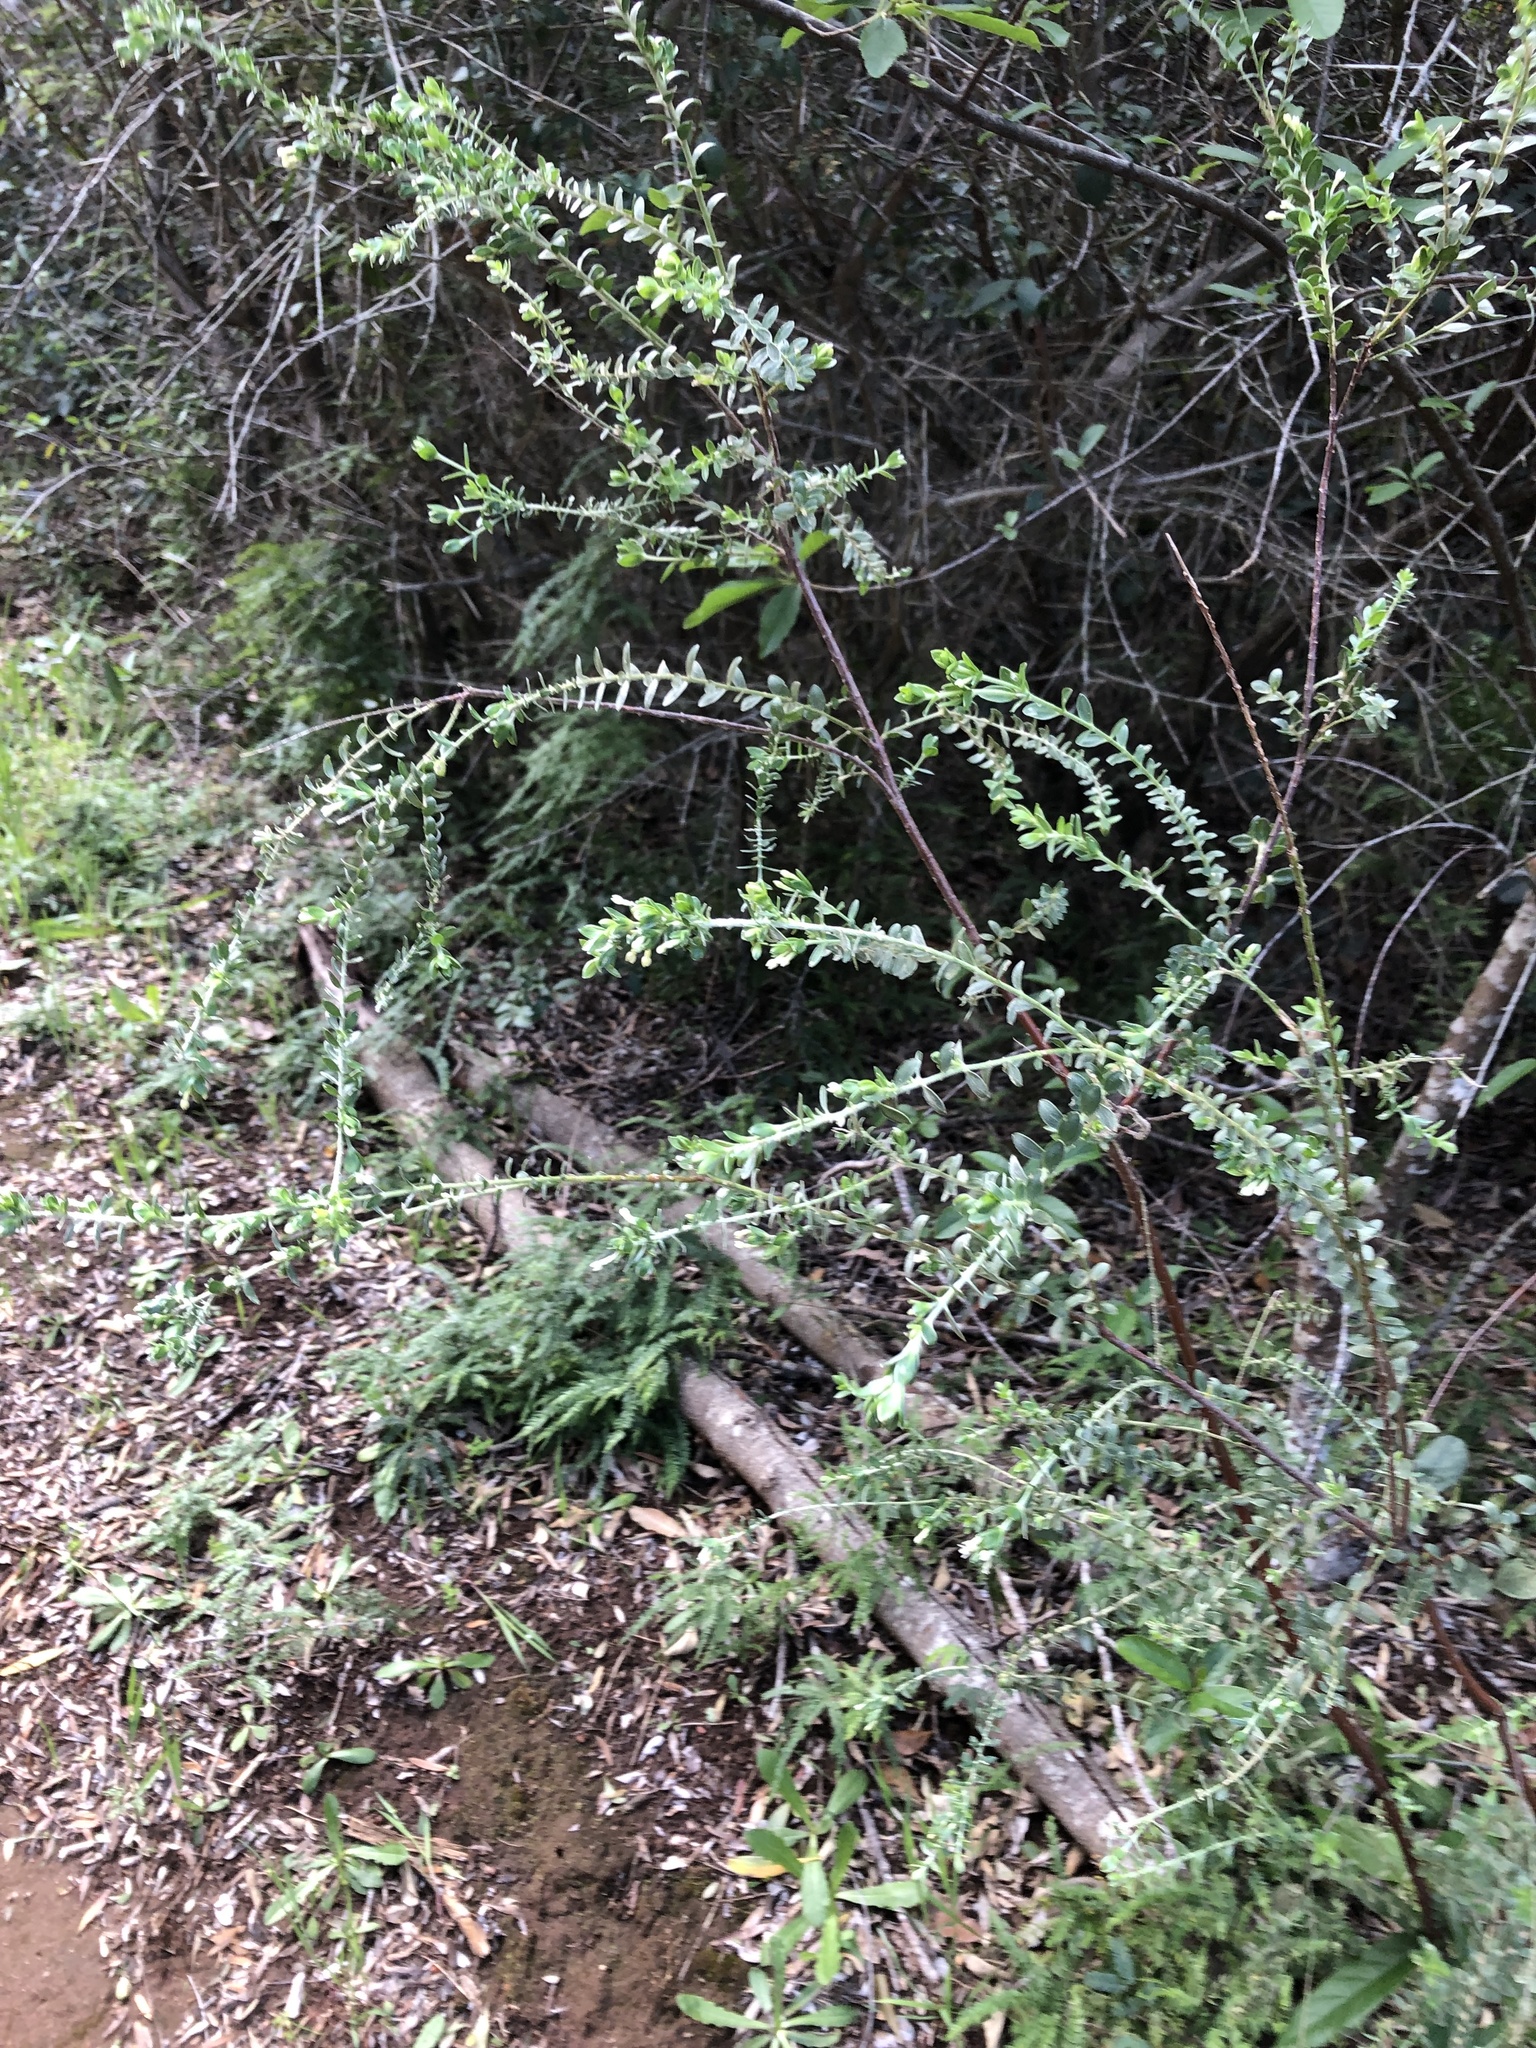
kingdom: Plantae
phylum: Tracheophyta
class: Magnoliopsida
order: Malvales
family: Thymelaeaceae
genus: Gnidia
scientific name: Gnidia sericea
